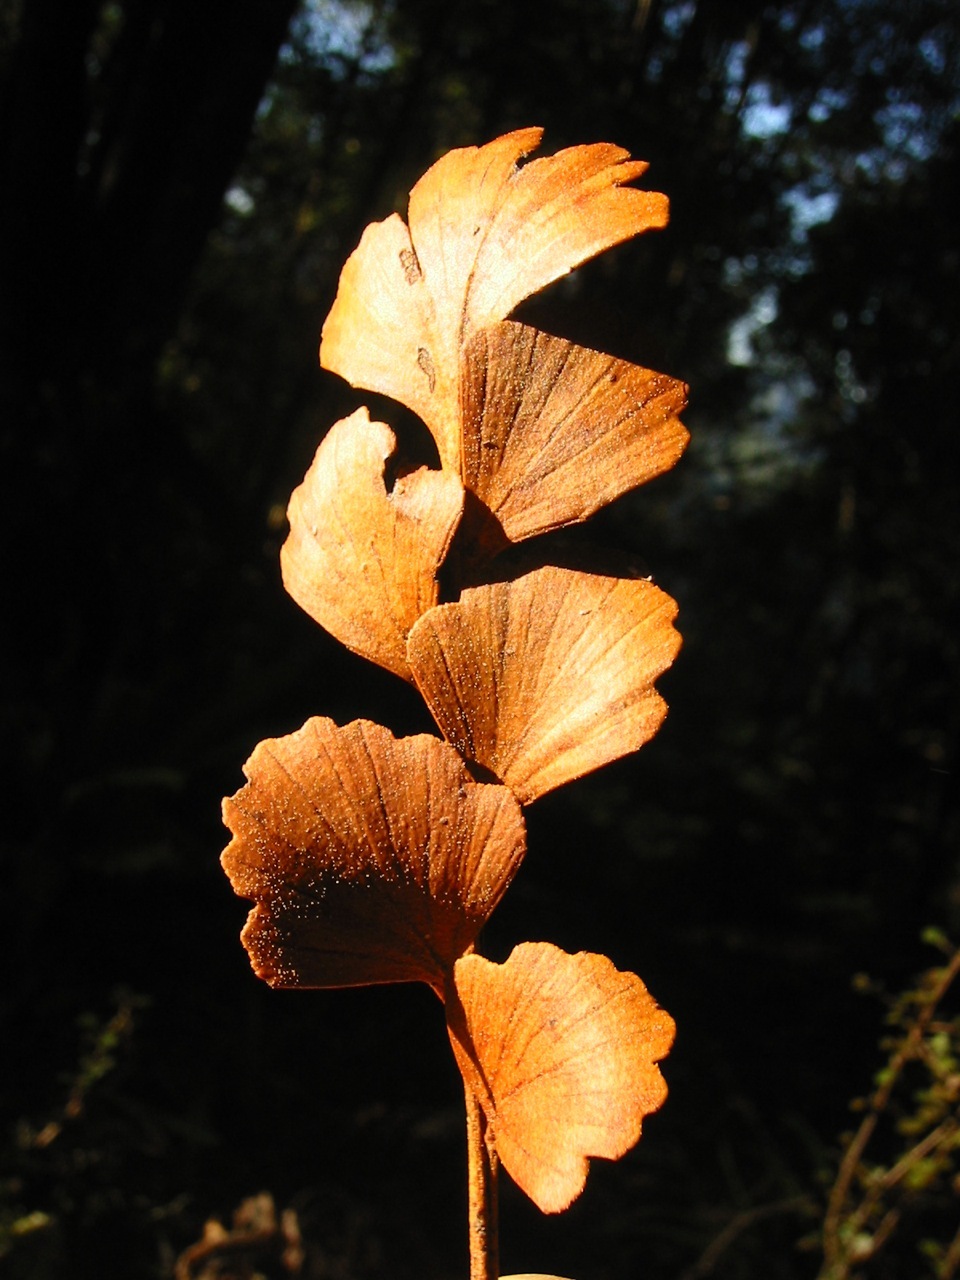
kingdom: Plantae
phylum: Tracheophyta
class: Pinopsida
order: Pinales
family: Phyllocladaceae
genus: Phyllocladus
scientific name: Phyllocladus toatoa
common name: Celery-top pine
